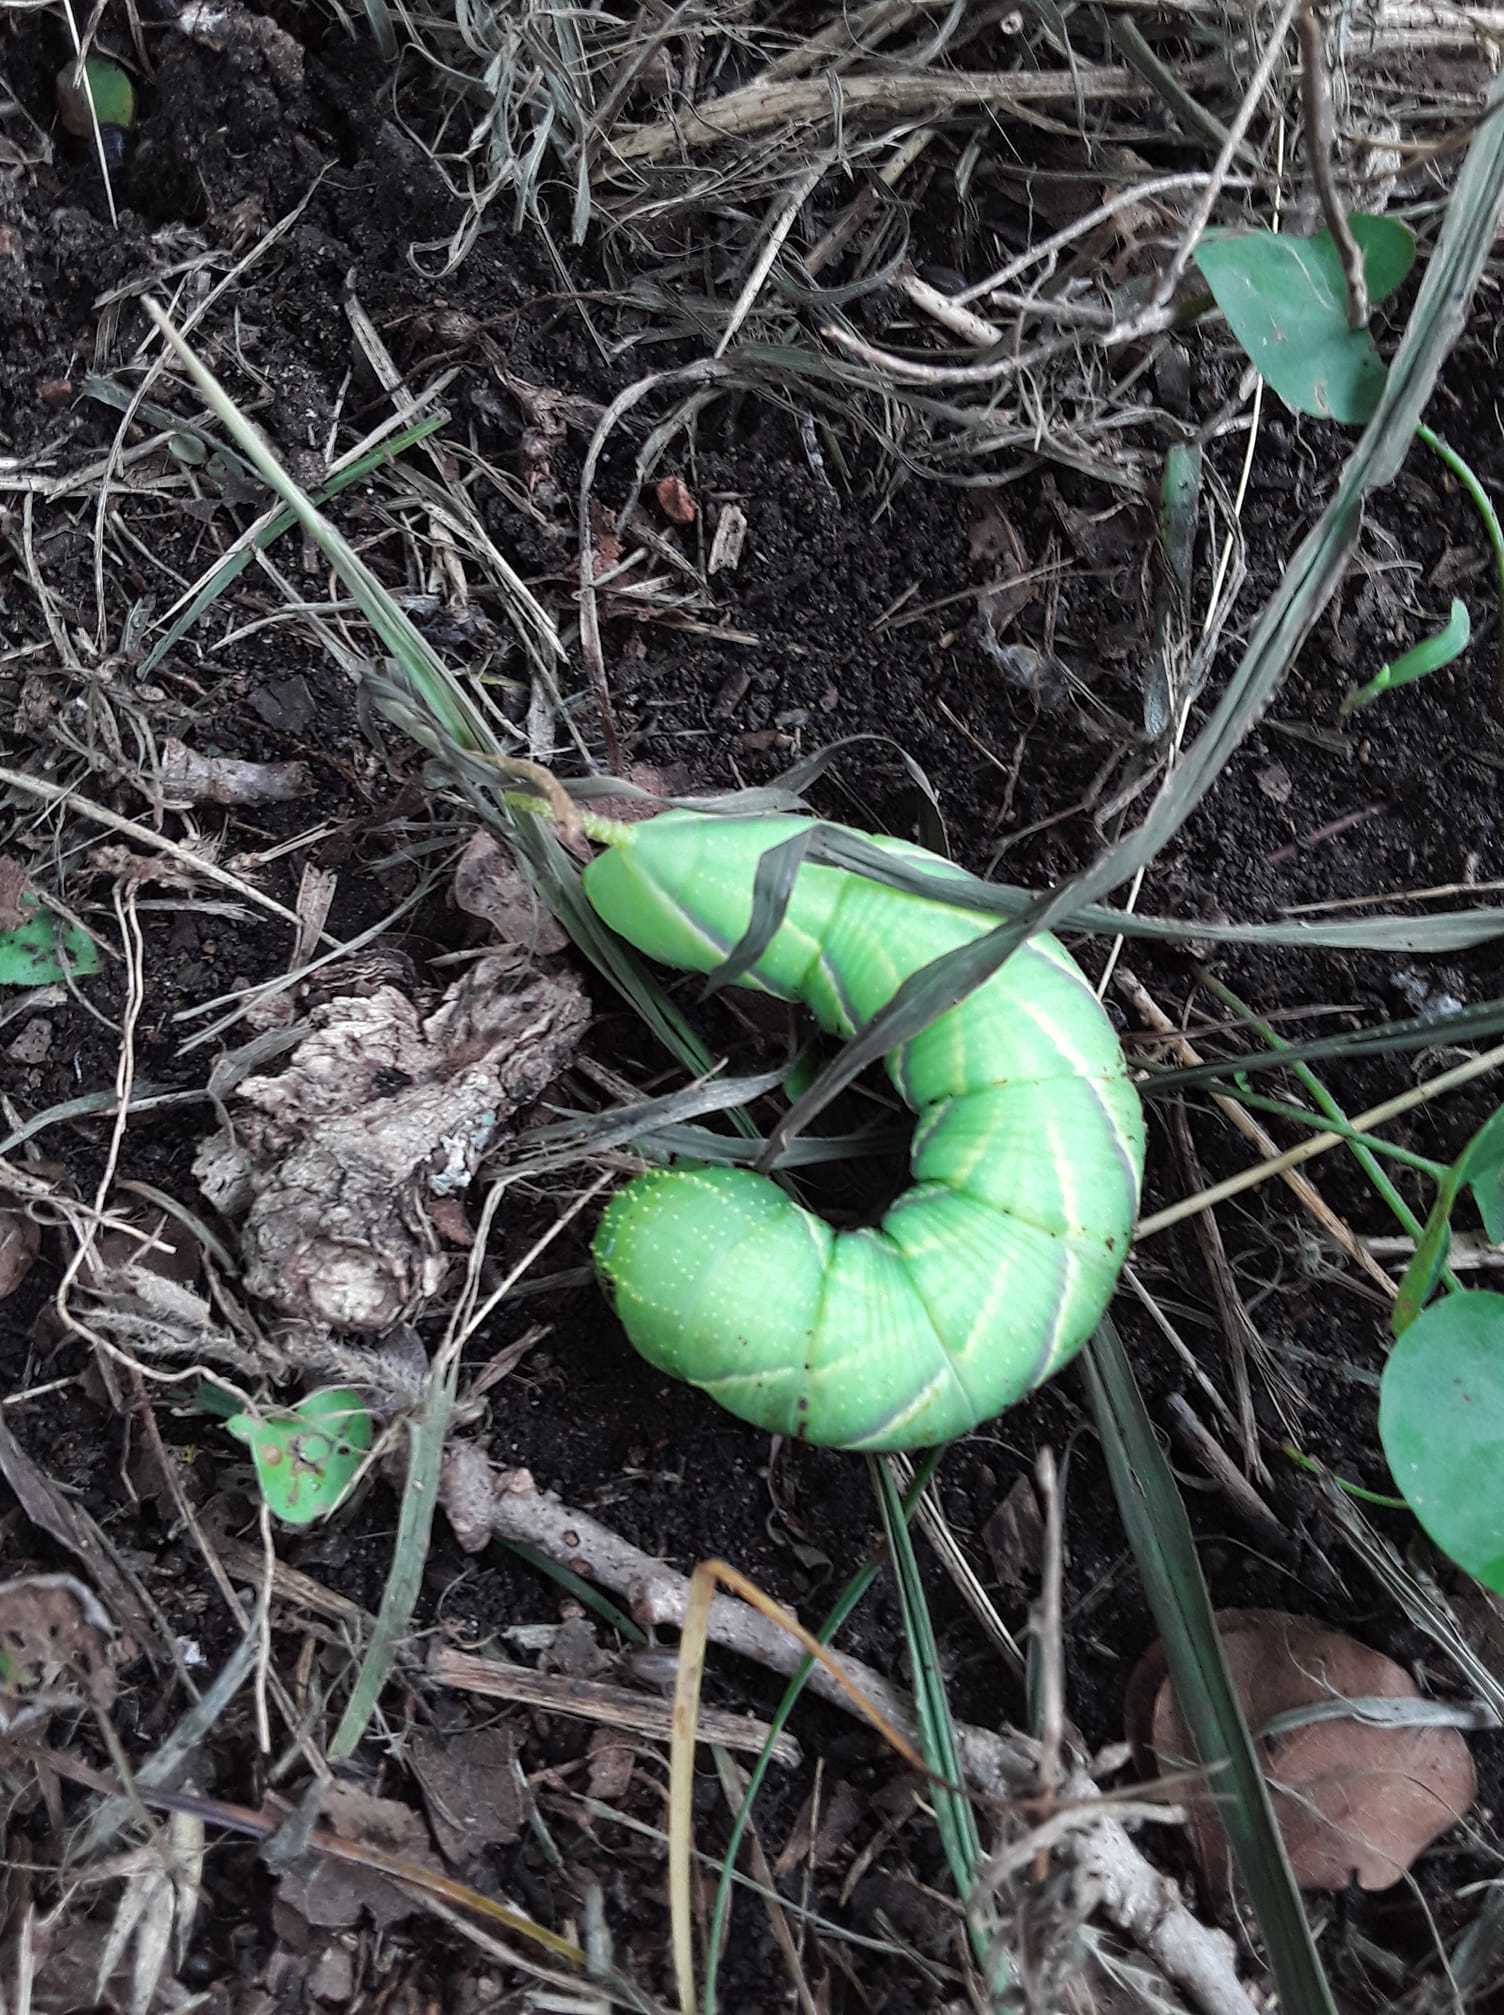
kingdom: Animalia
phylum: Arthropoda
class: Insecta
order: Lepidoptera
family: Sphingidae
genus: Manduca
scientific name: Manduca rustica
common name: Rustic sphinx
